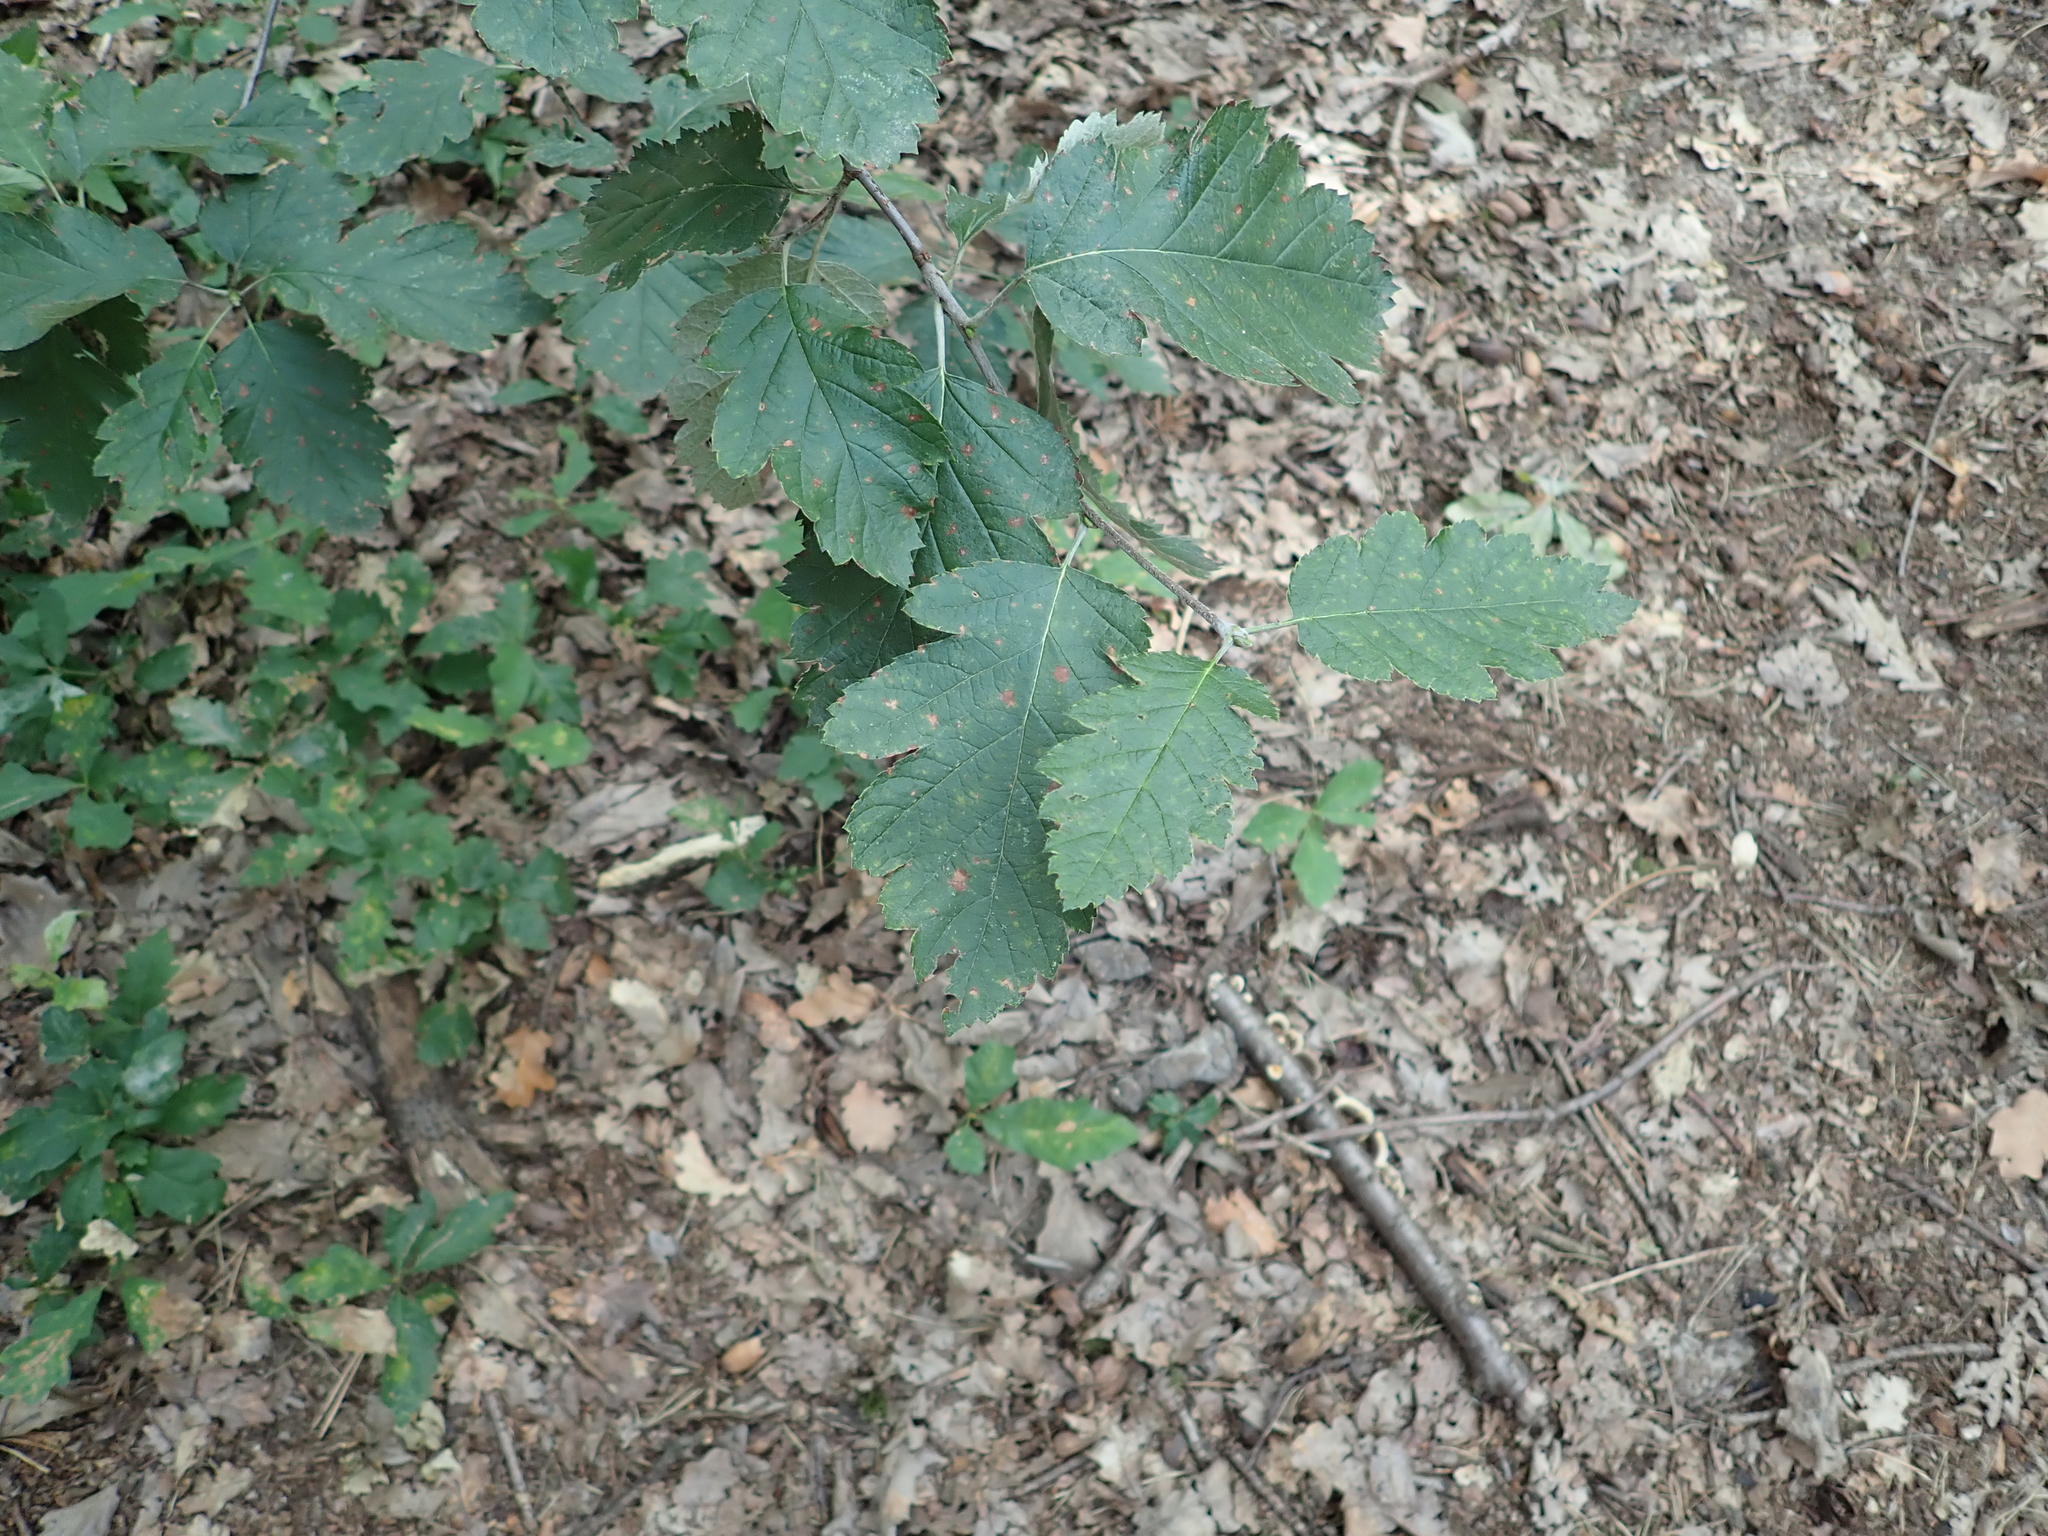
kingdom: Plantae
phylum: Tracheophyta
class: Magnoliopsida
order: Rosales
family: Rosaceae
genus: Scandosorbus
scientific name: Scandosorbus intermedia
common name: Swedish whitebeam
